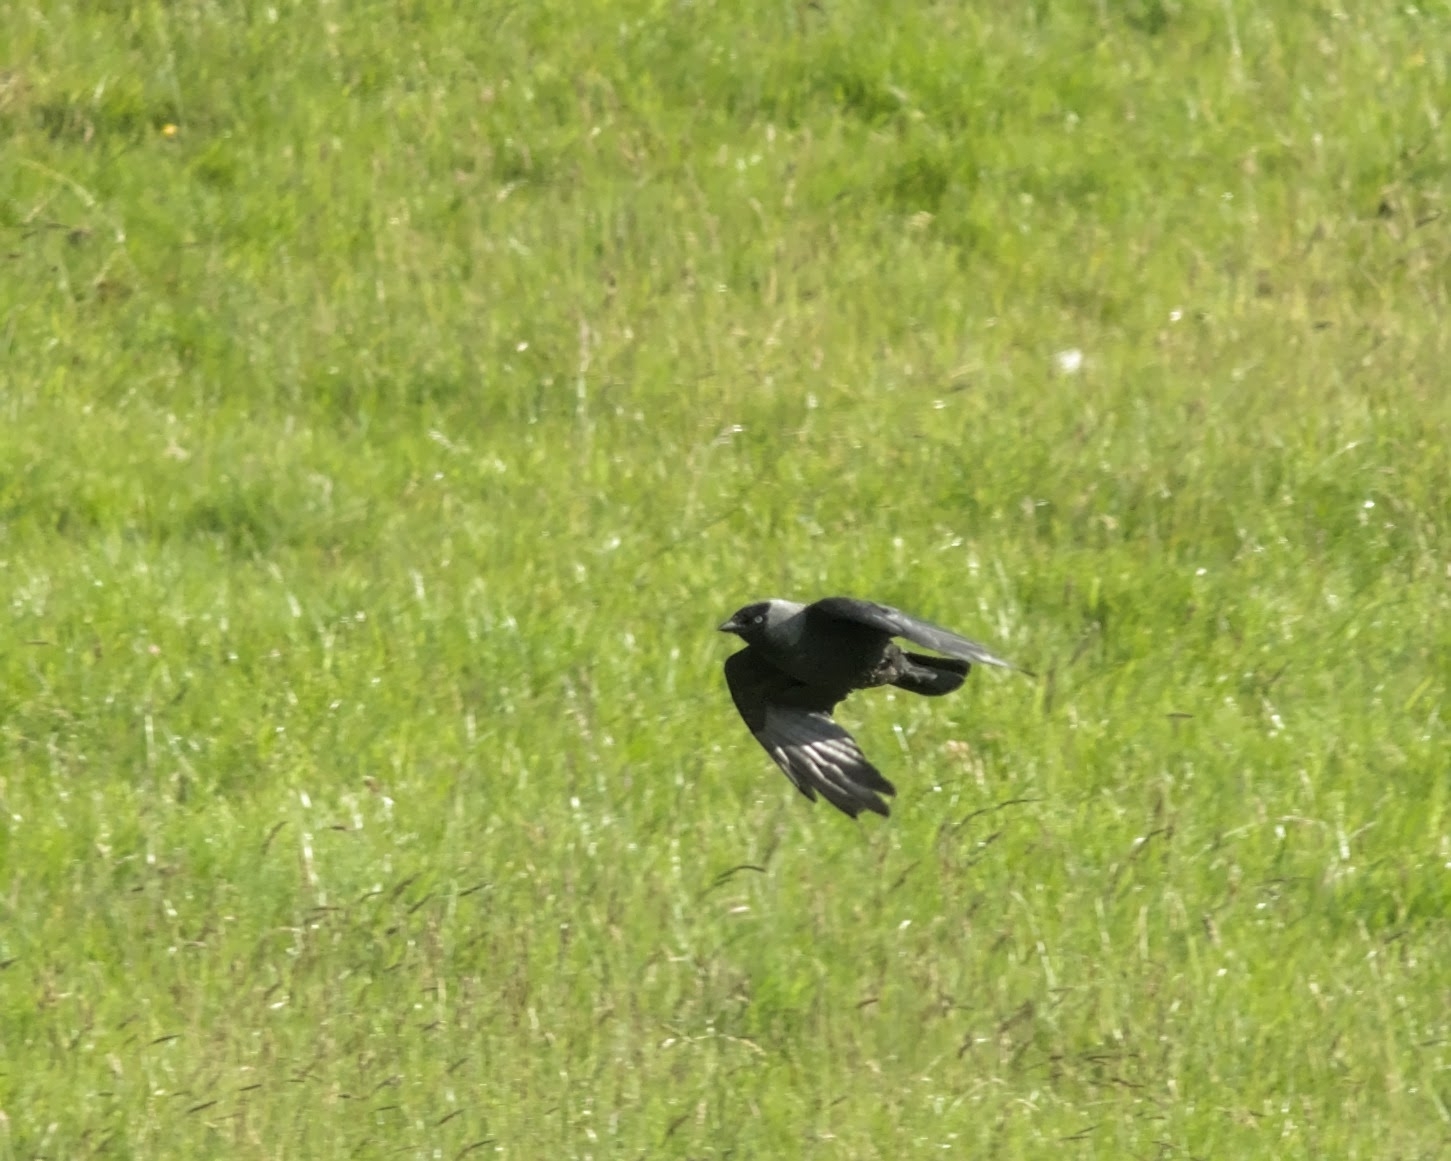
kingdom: Animalia
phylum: Chordata
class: Aves
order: Passeriformes
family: Corvidae
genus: Coloeus
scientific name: Coloeus monedula
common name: Western jackdaw
